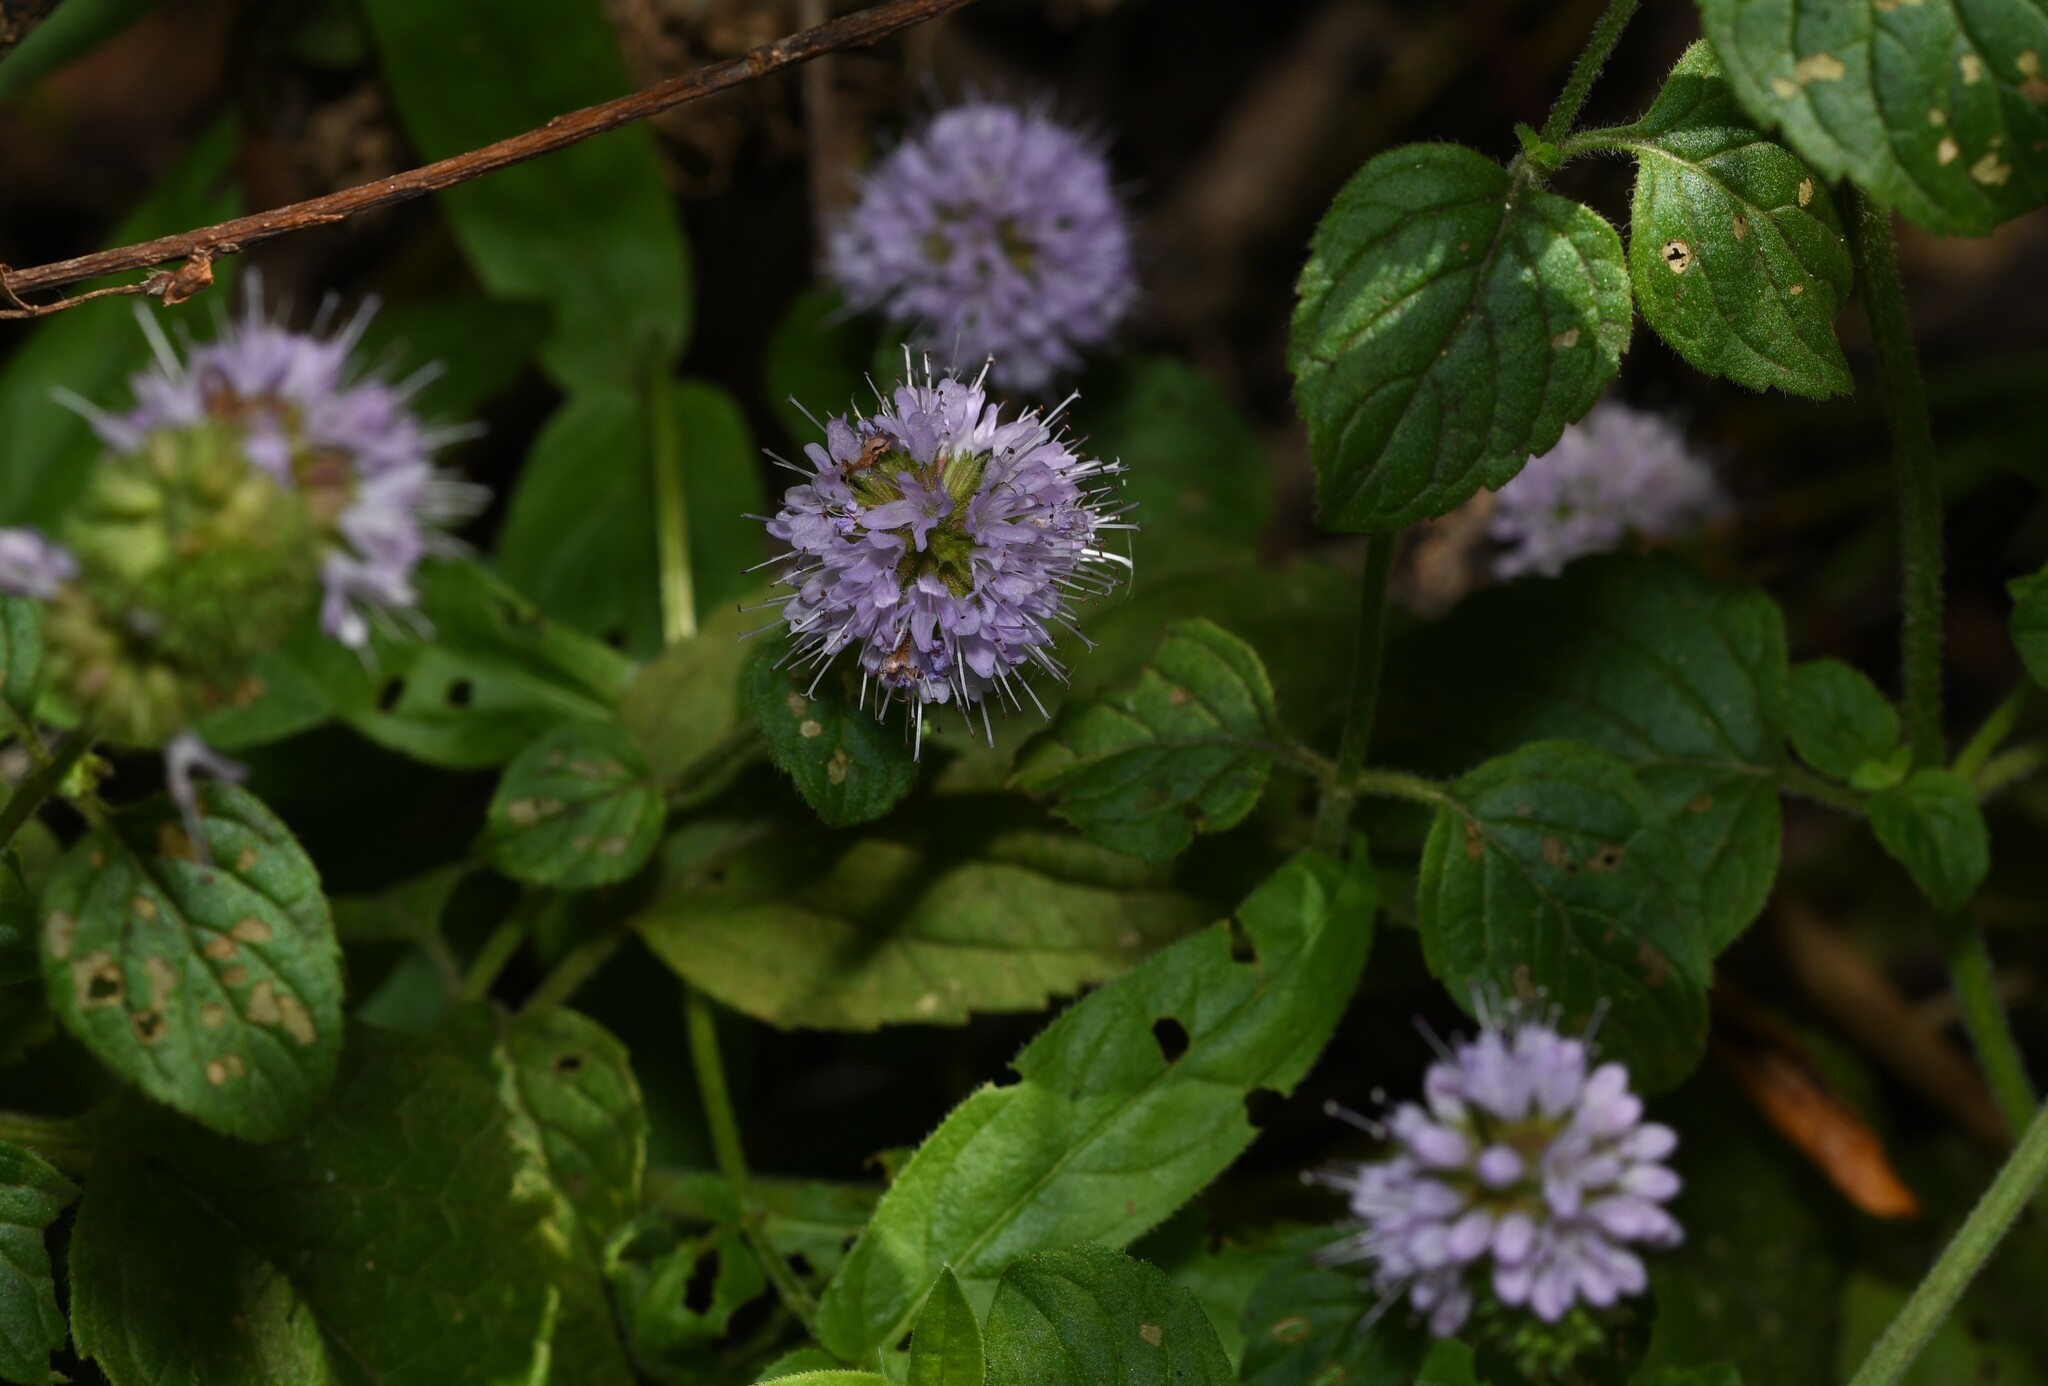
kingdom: Plantae
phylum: Tracheophyta
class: Magnoliopsida
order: Lamiales
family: Lamiaceae
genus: Mentha
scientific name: Mentha aquatica
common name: Water mint
